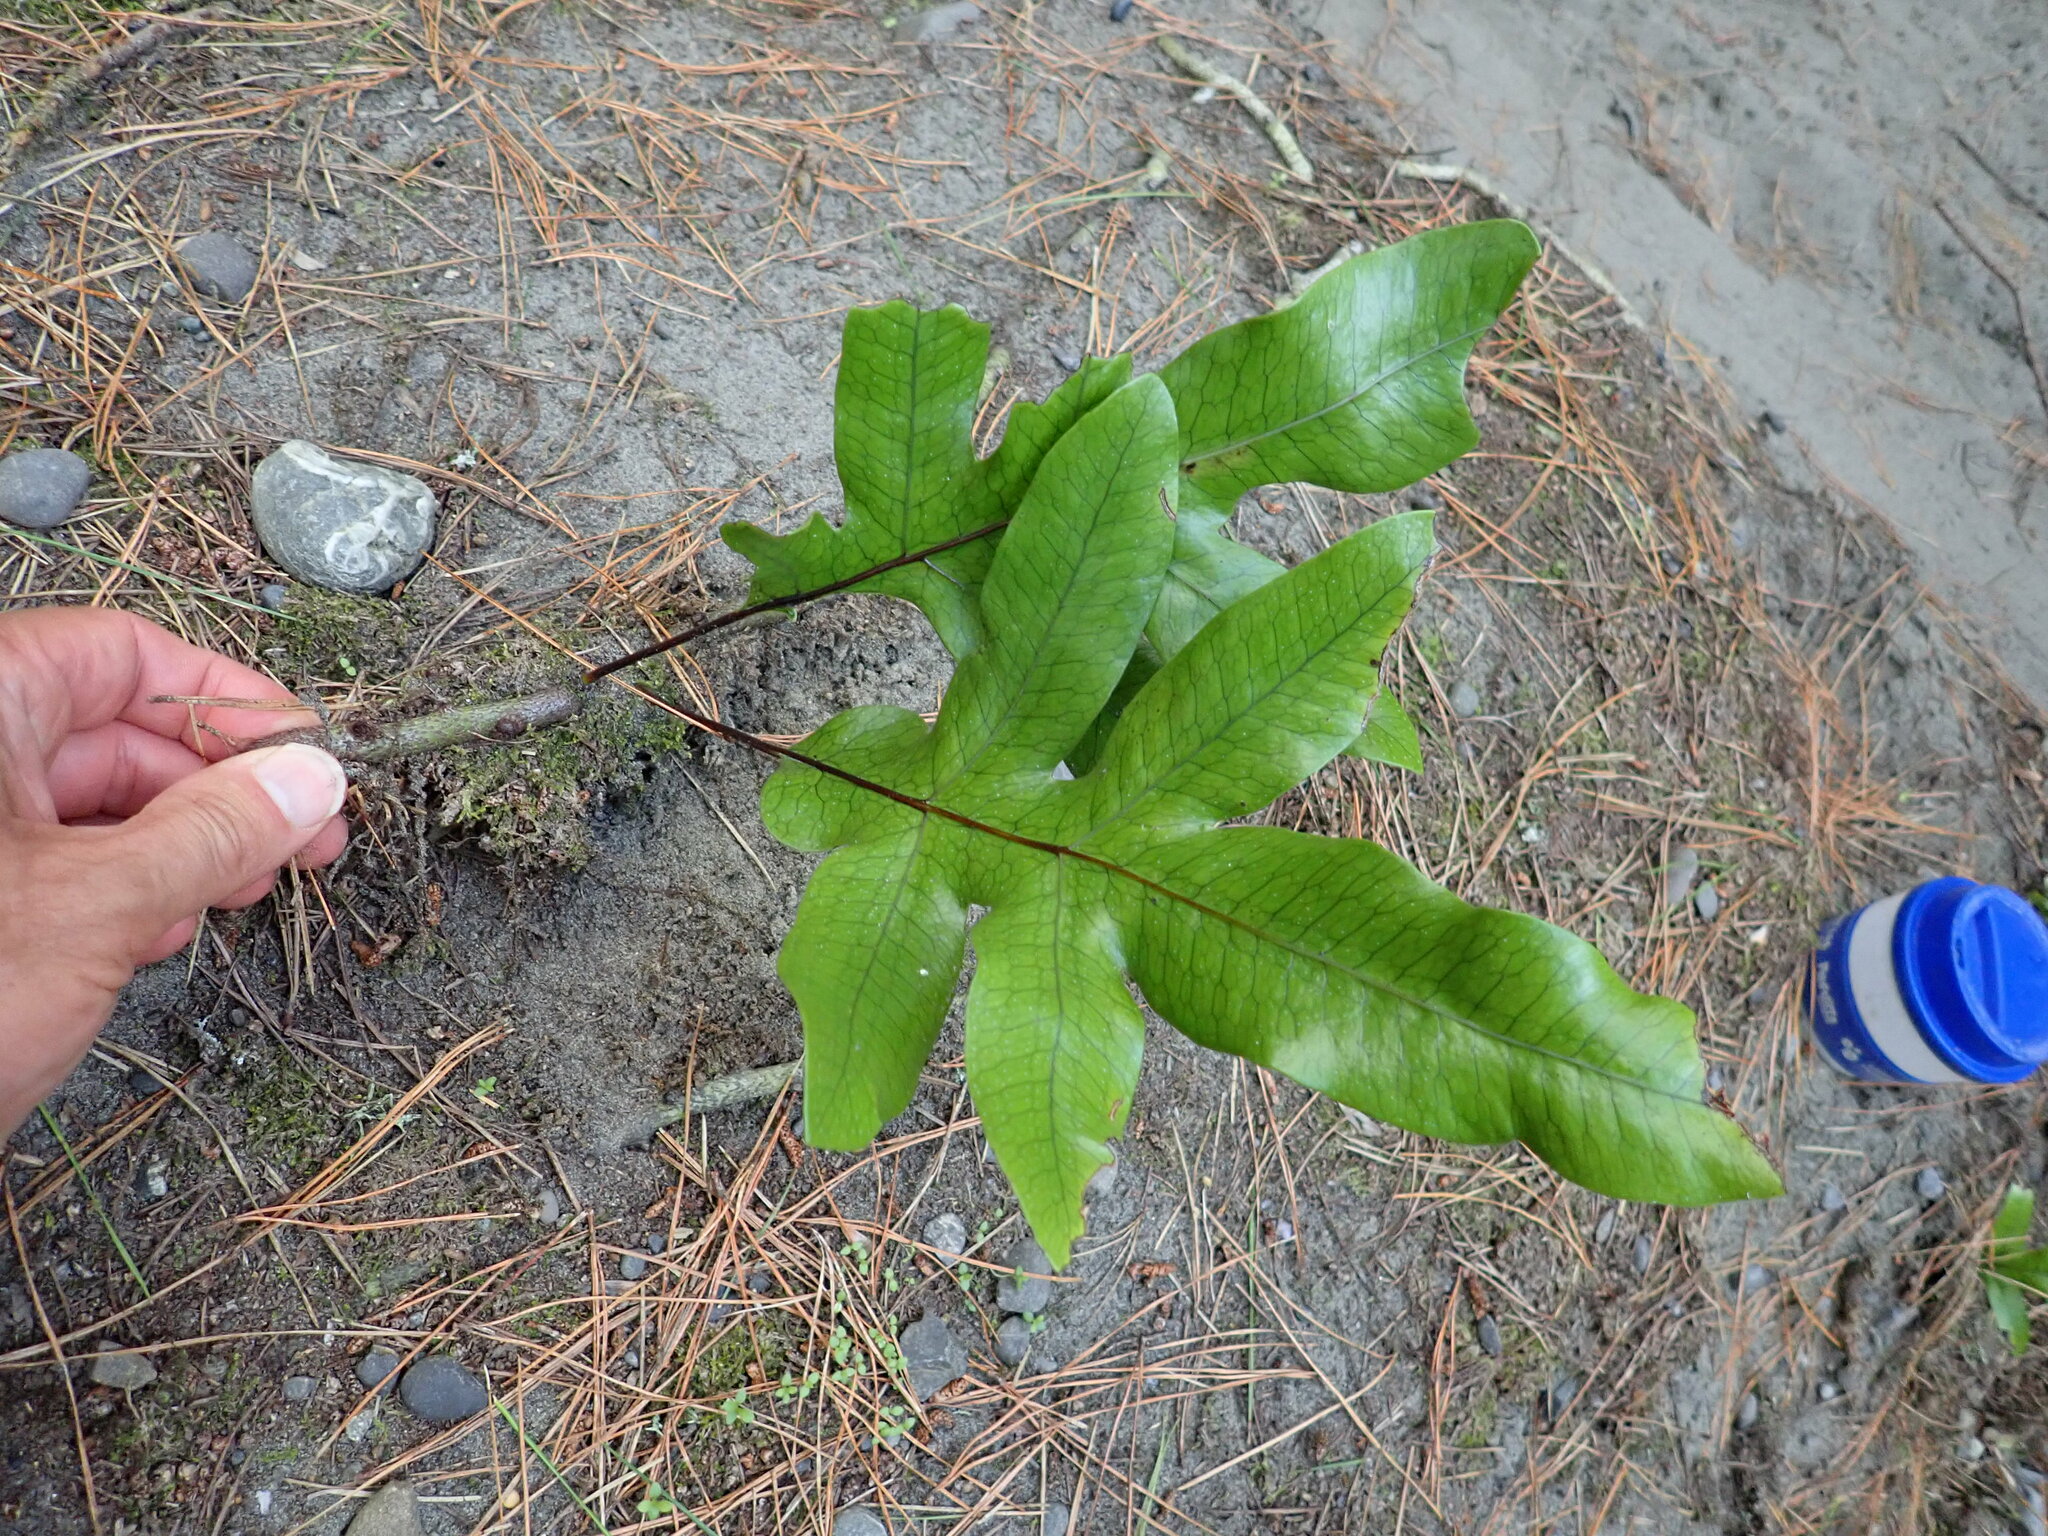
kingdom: Plantae
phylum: Tracheophyta
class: Polypodiopsida
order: Polypodiales
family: Polypodiaceae
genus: Lecanopteris
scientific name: Lecanopteris pustulata
